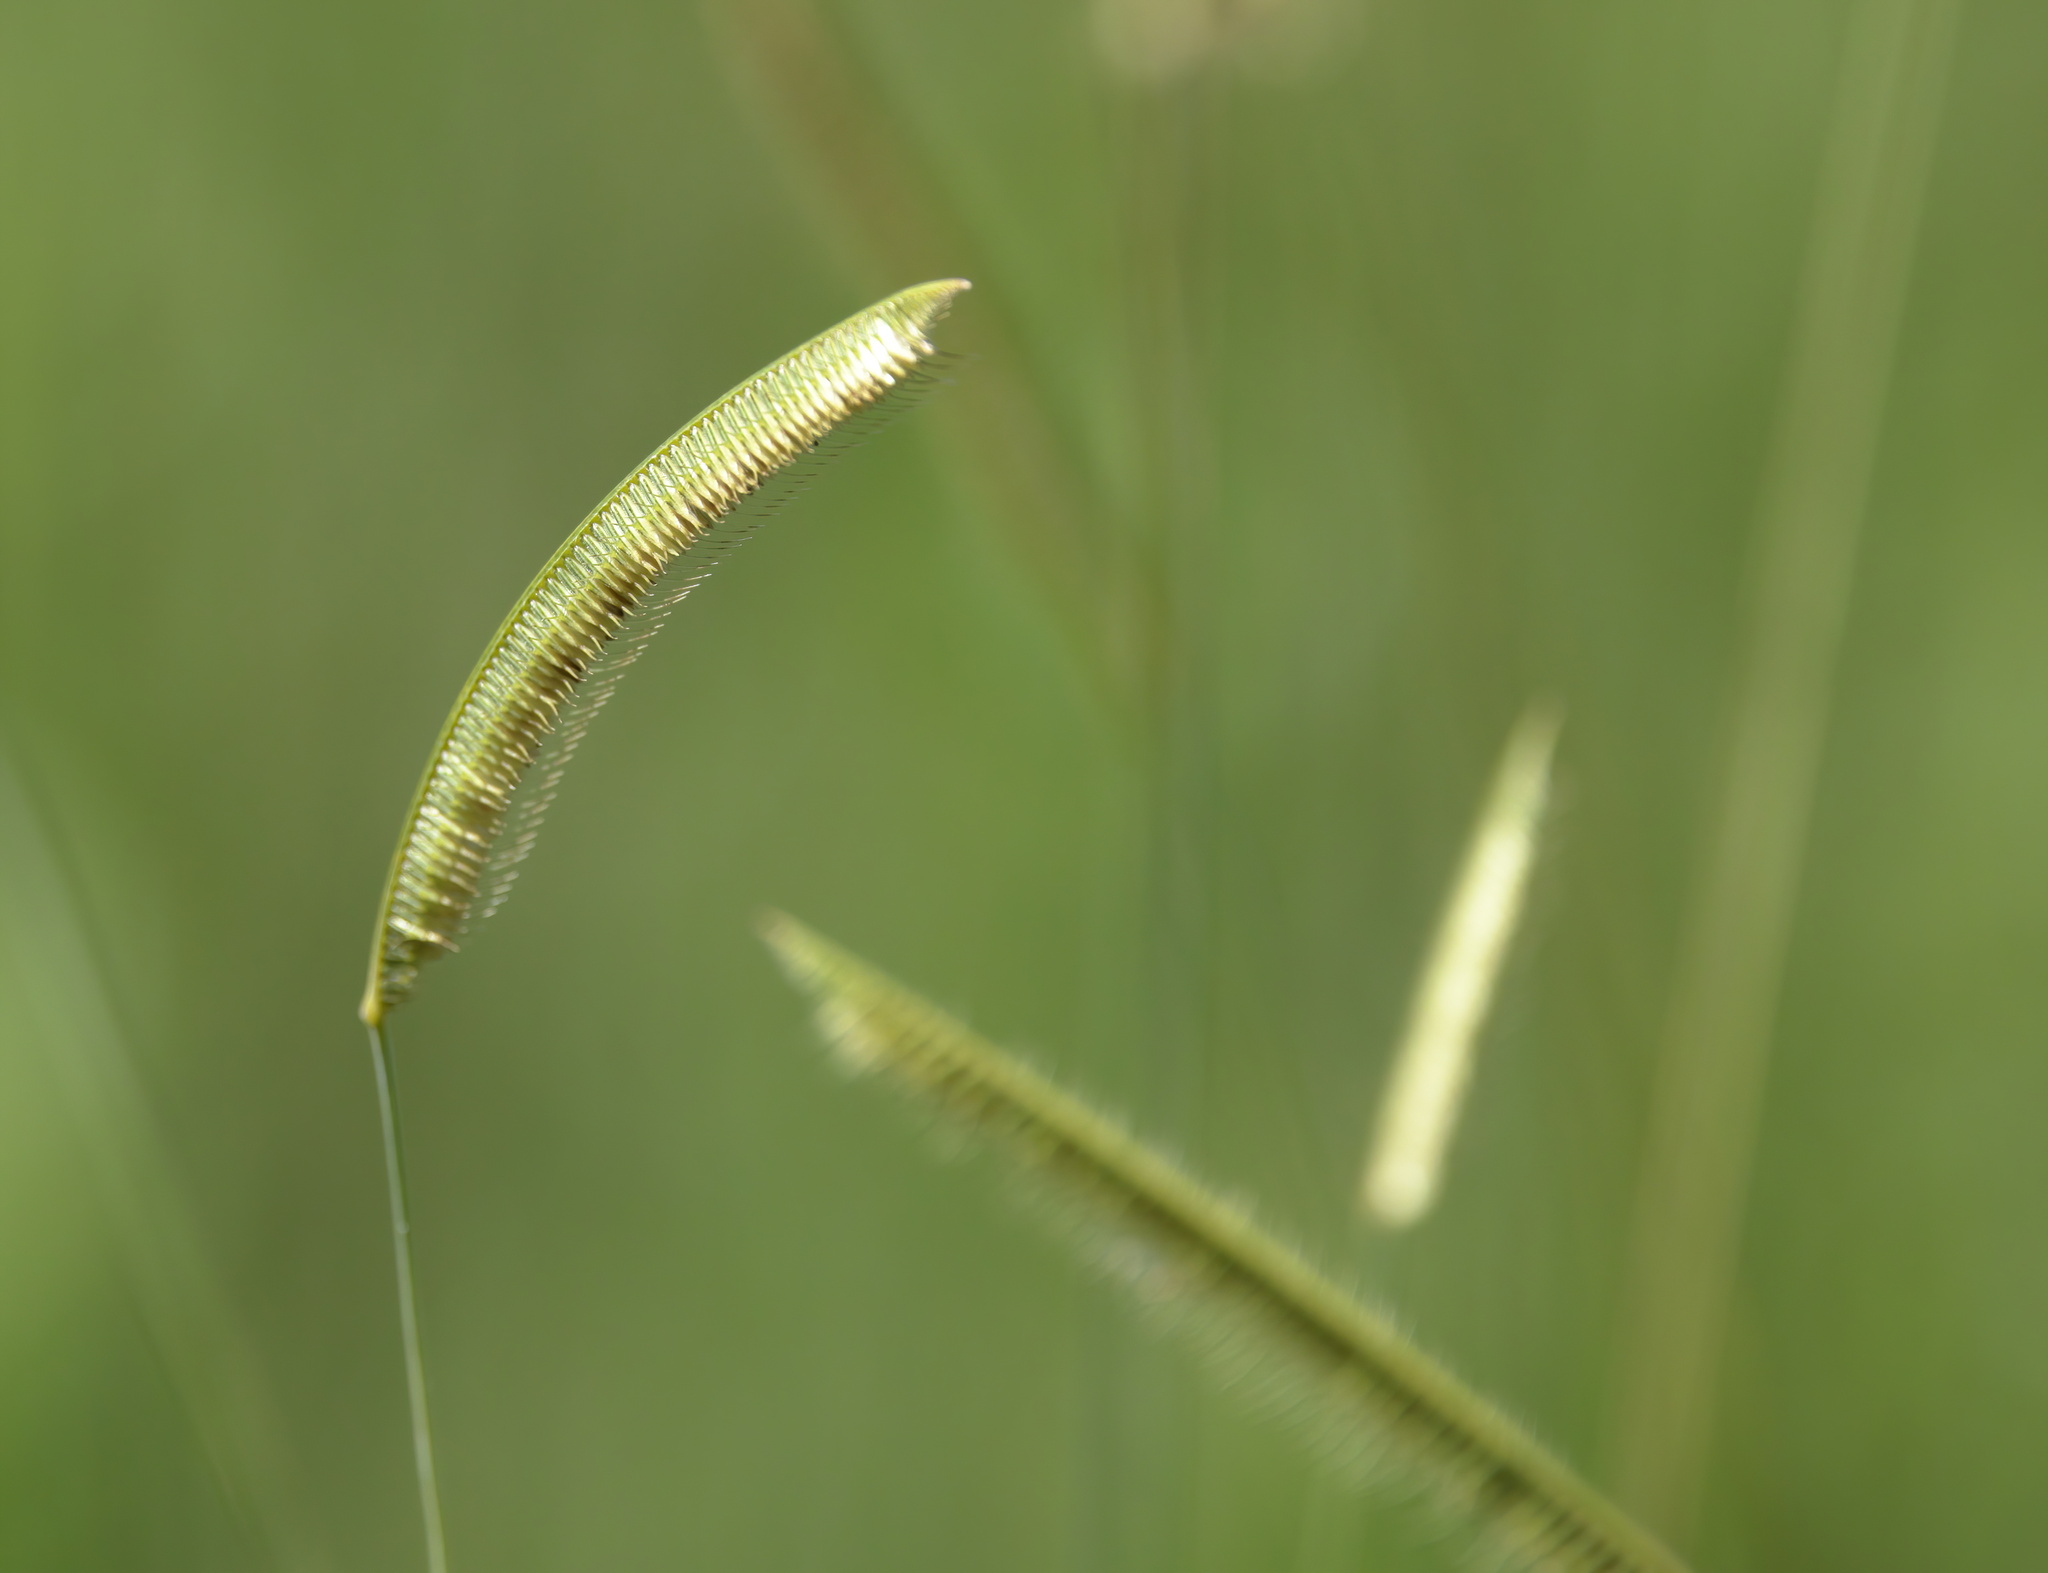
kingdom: Plantae
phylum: Tracheophyta
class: Liliopsida
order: Poales
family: Poaceae
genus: Ctenium
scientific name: Ctenium aromaticum
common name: Toothache grass
